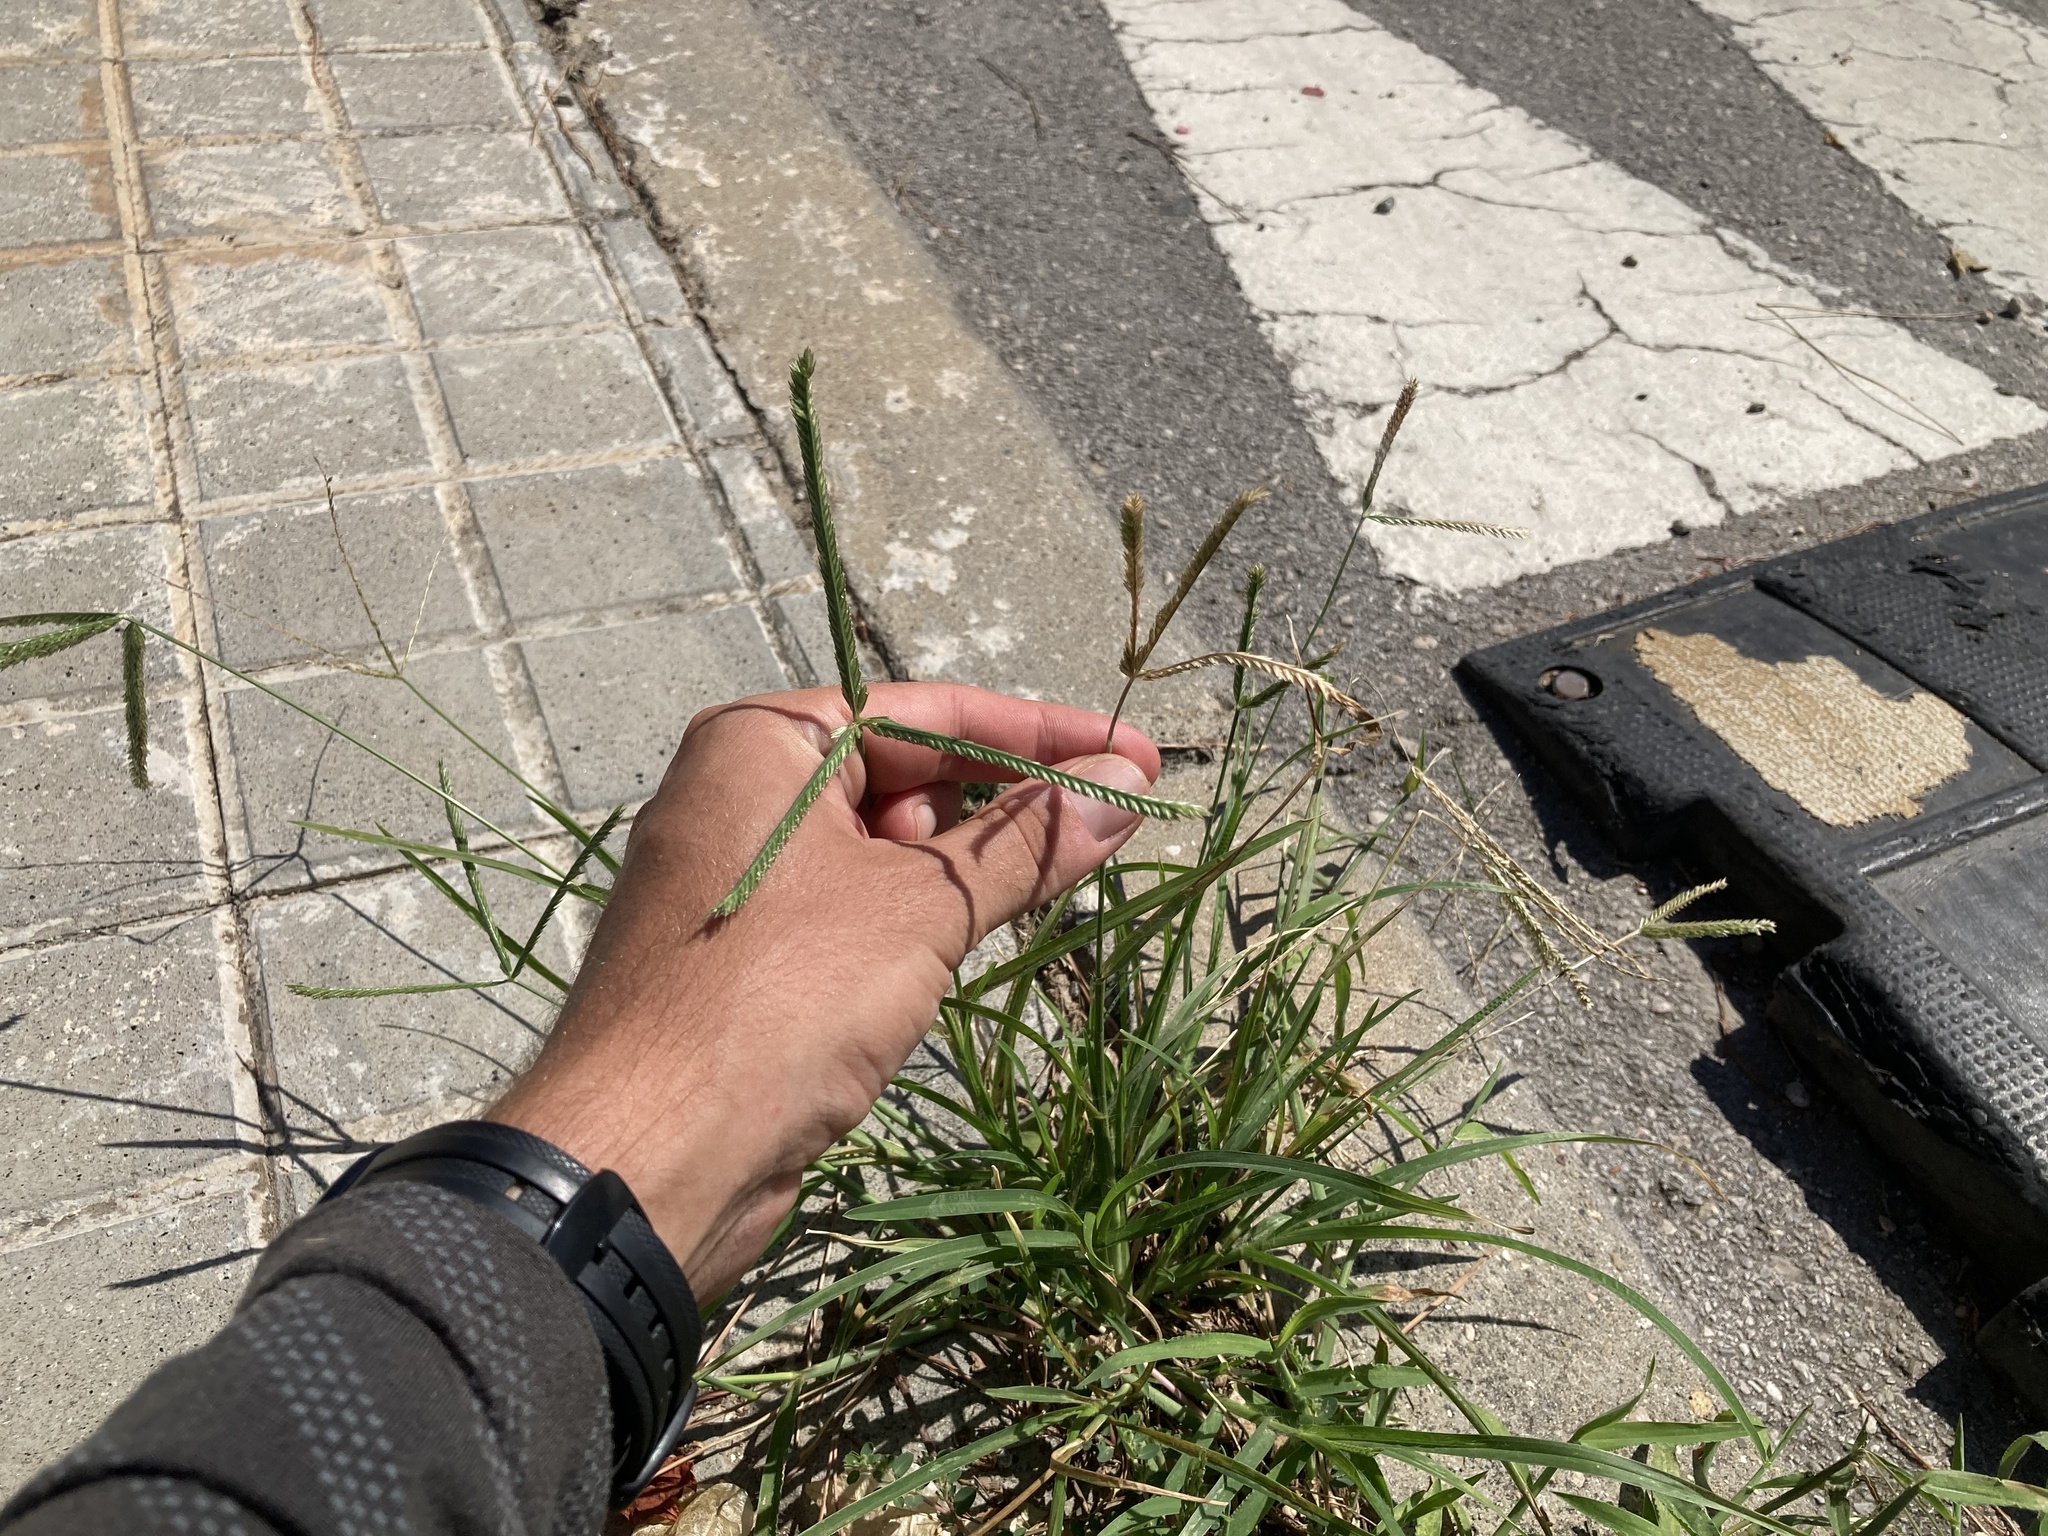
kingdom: Plantae
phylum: Tracheophyta
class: Liliopsida
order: Poales
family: Poaceae
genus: Eleusine
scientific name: Eleusine indica
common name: Yard-grass
